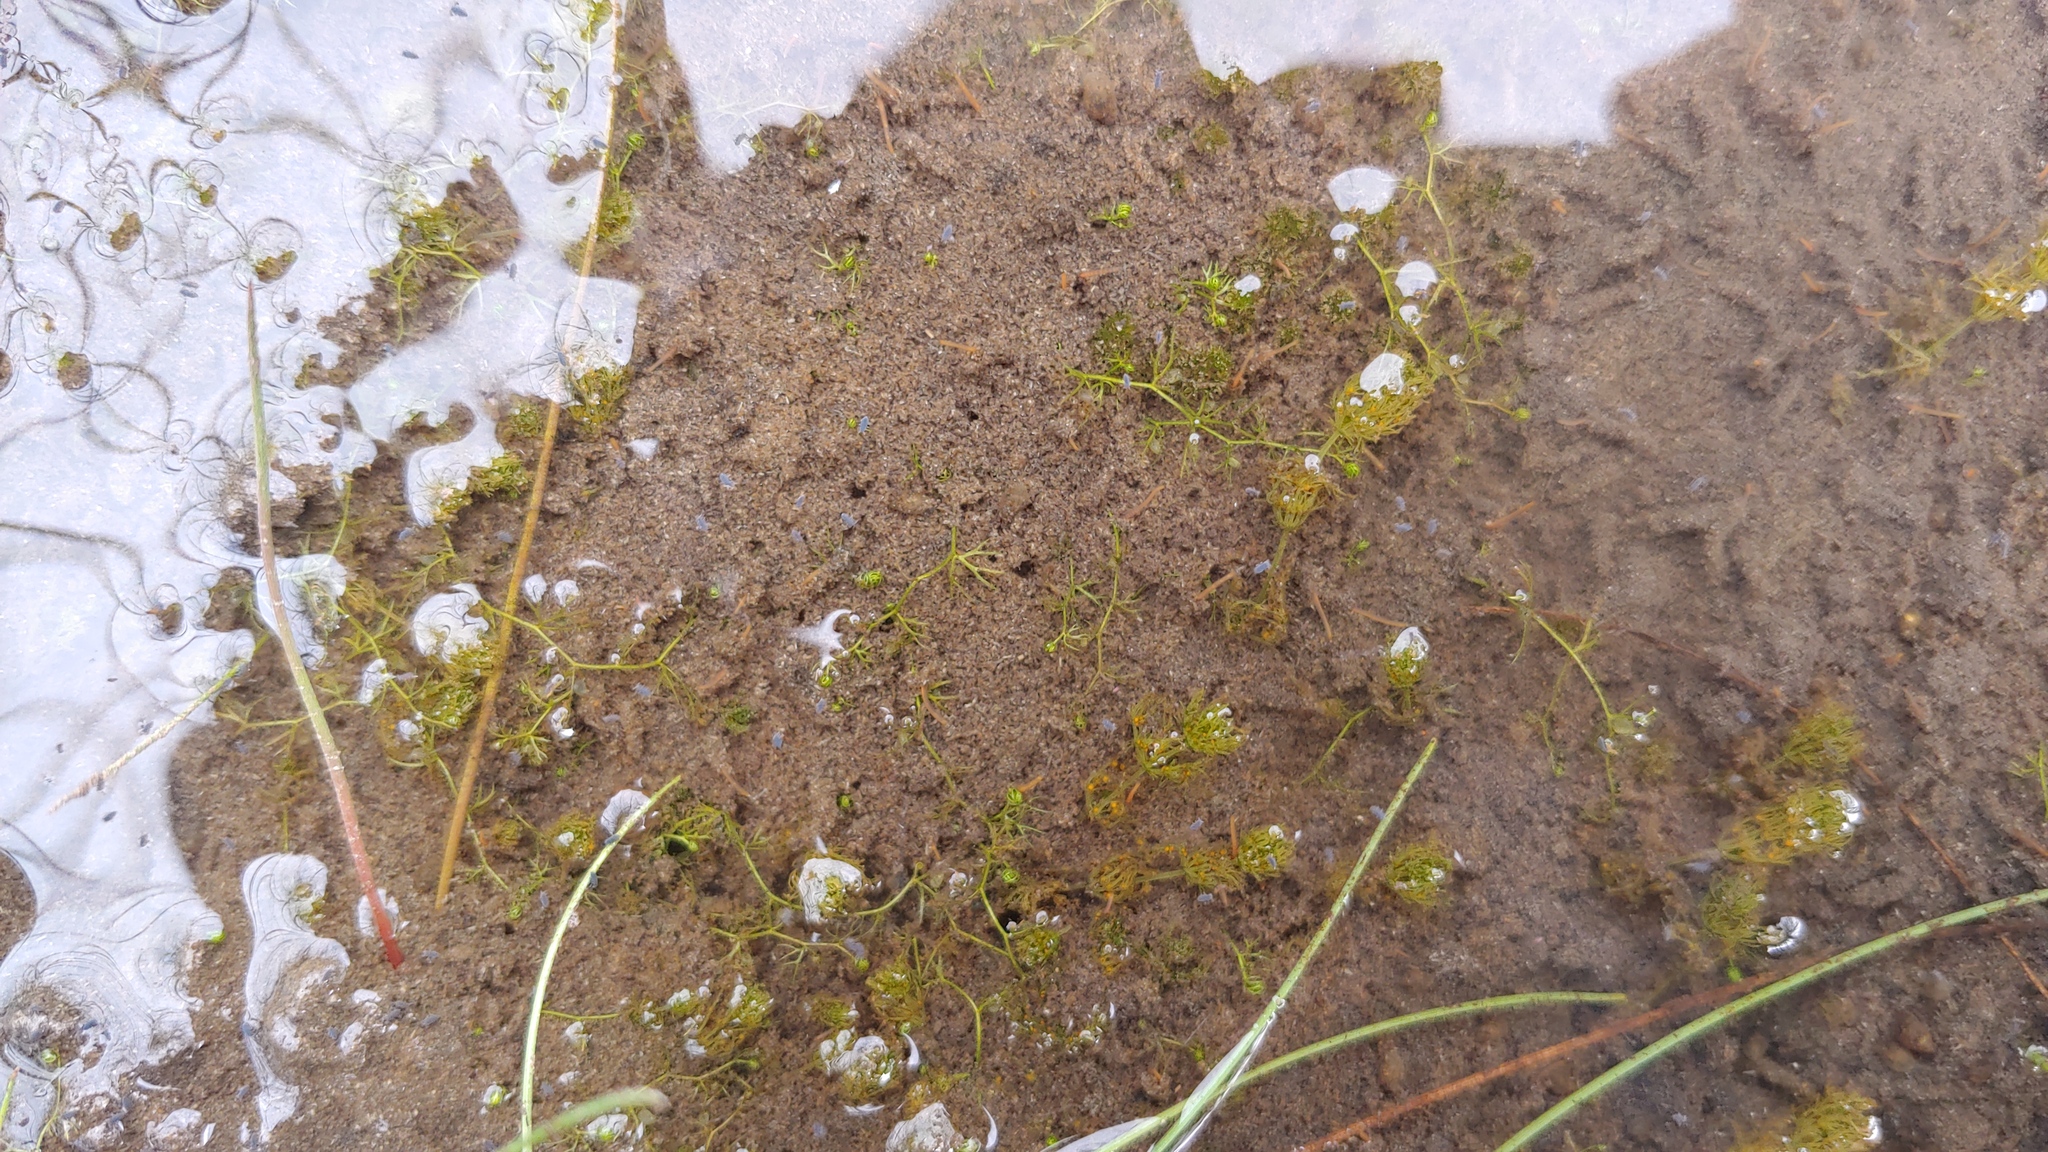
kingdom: Plantae
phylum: Tracheophyta
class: Magnoliopsida
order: Lamiales
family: Lentibulariaceae
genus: Utricularia
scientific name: Utricularia minor
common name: Lesser bladderwort
